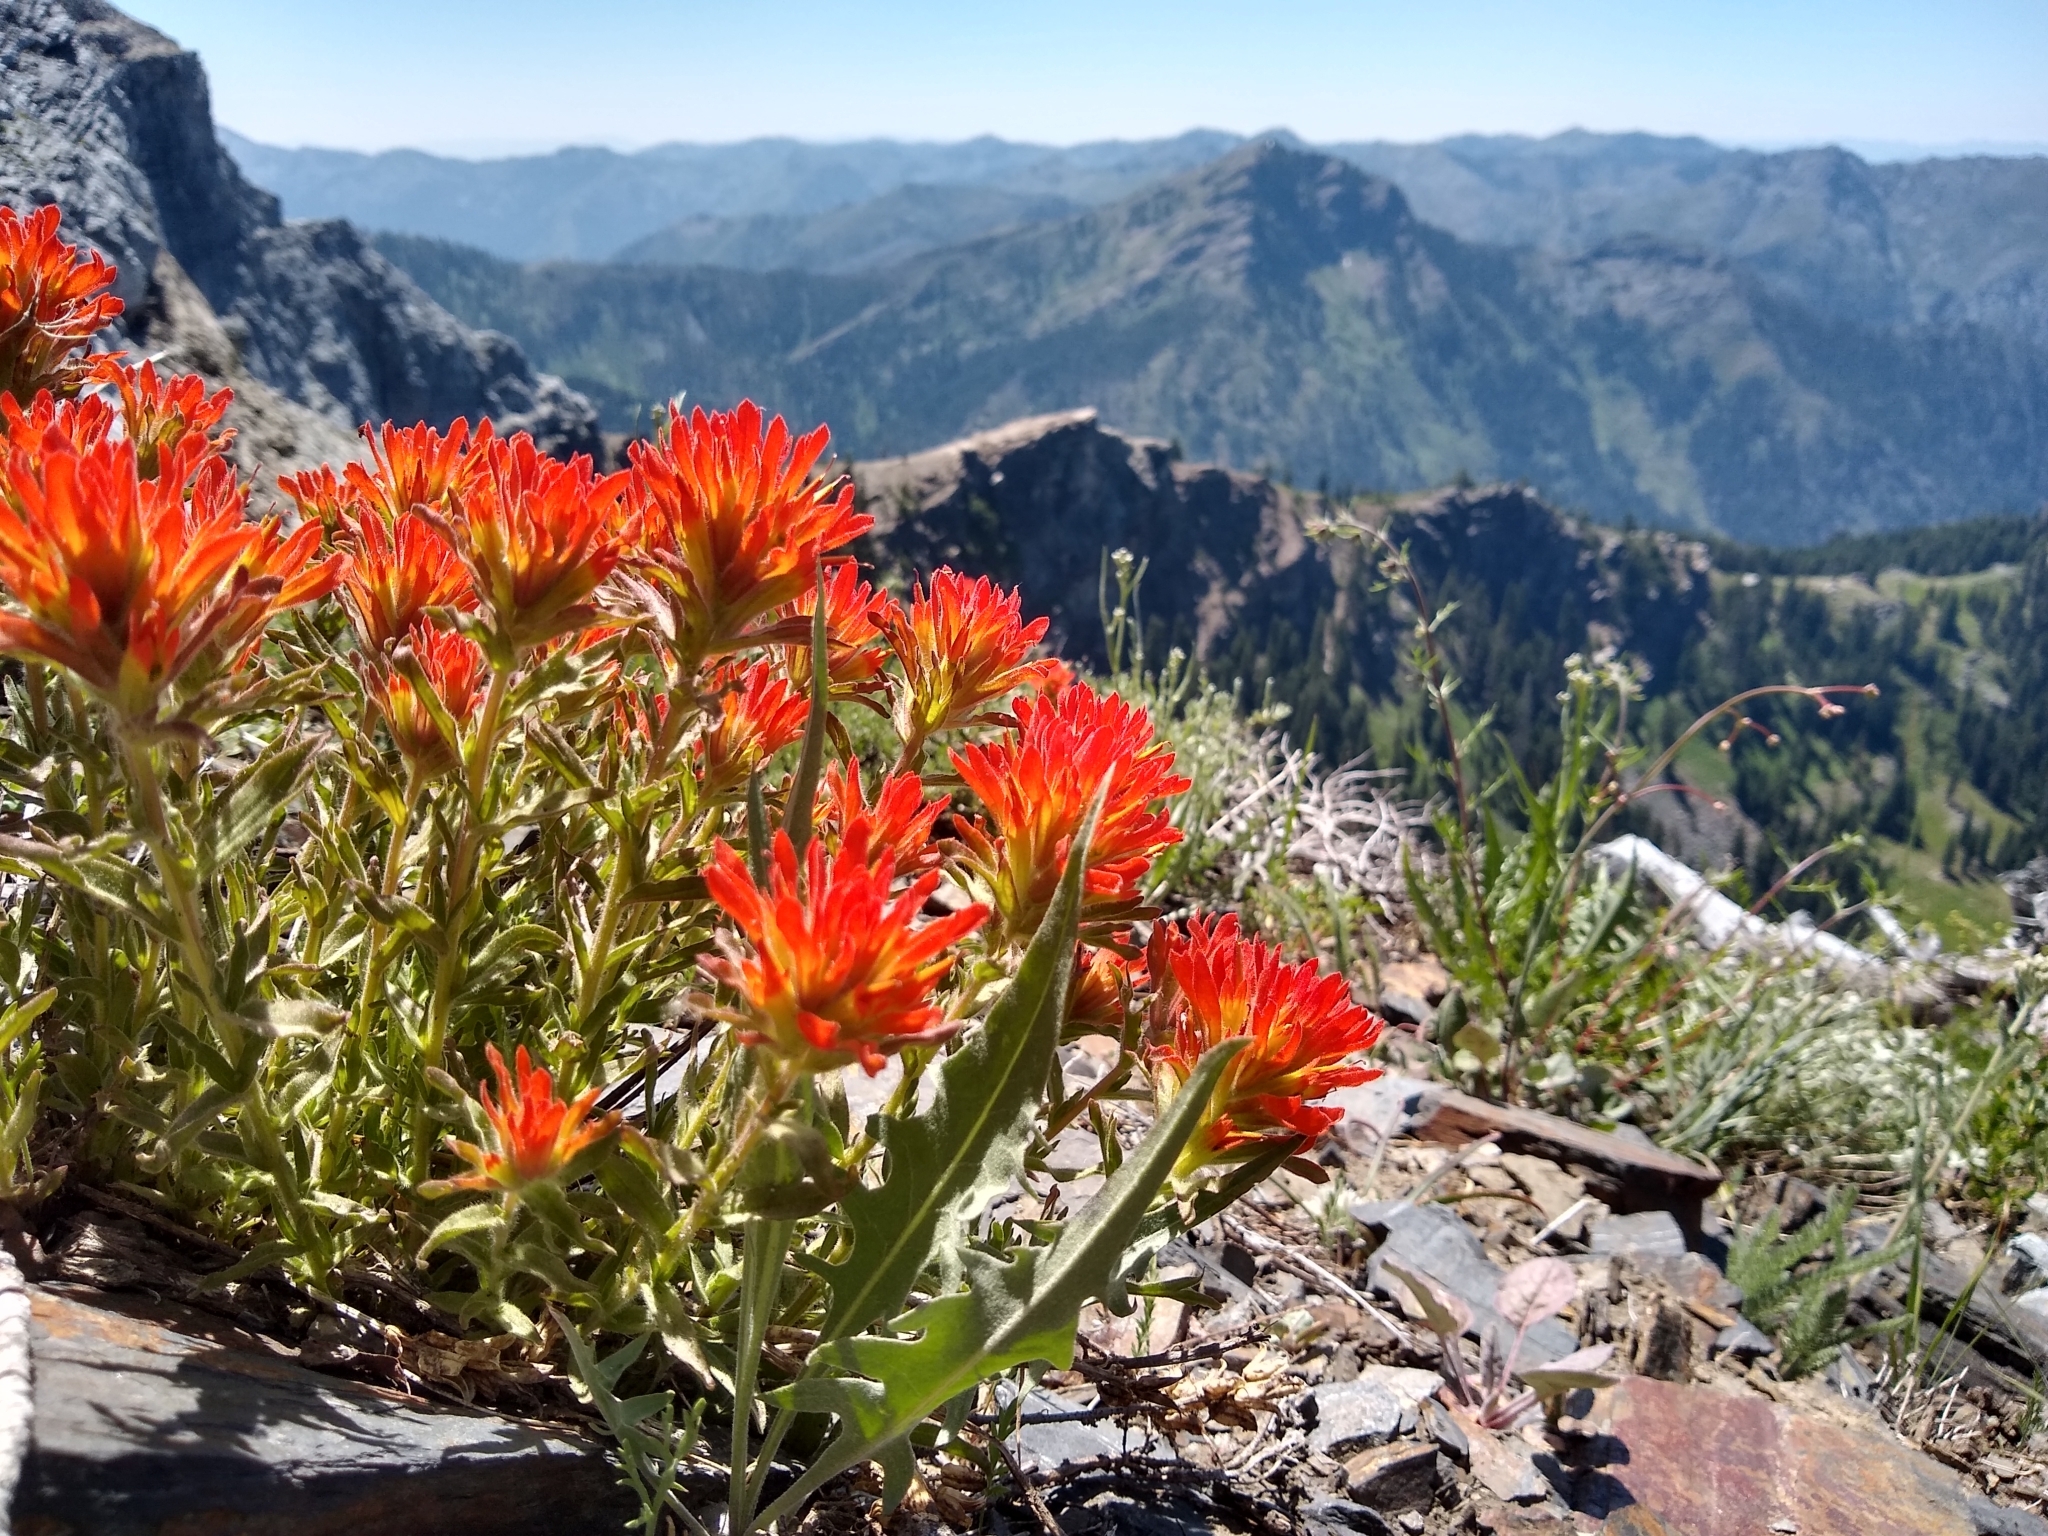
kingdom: Plantae
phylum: Tracheophyta
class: Magnoliopsida
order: Lamiales
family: Orobanchaceae
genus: Castilleja
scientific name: Castilleja applegatei
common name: Wavy-leaf paintbrush
